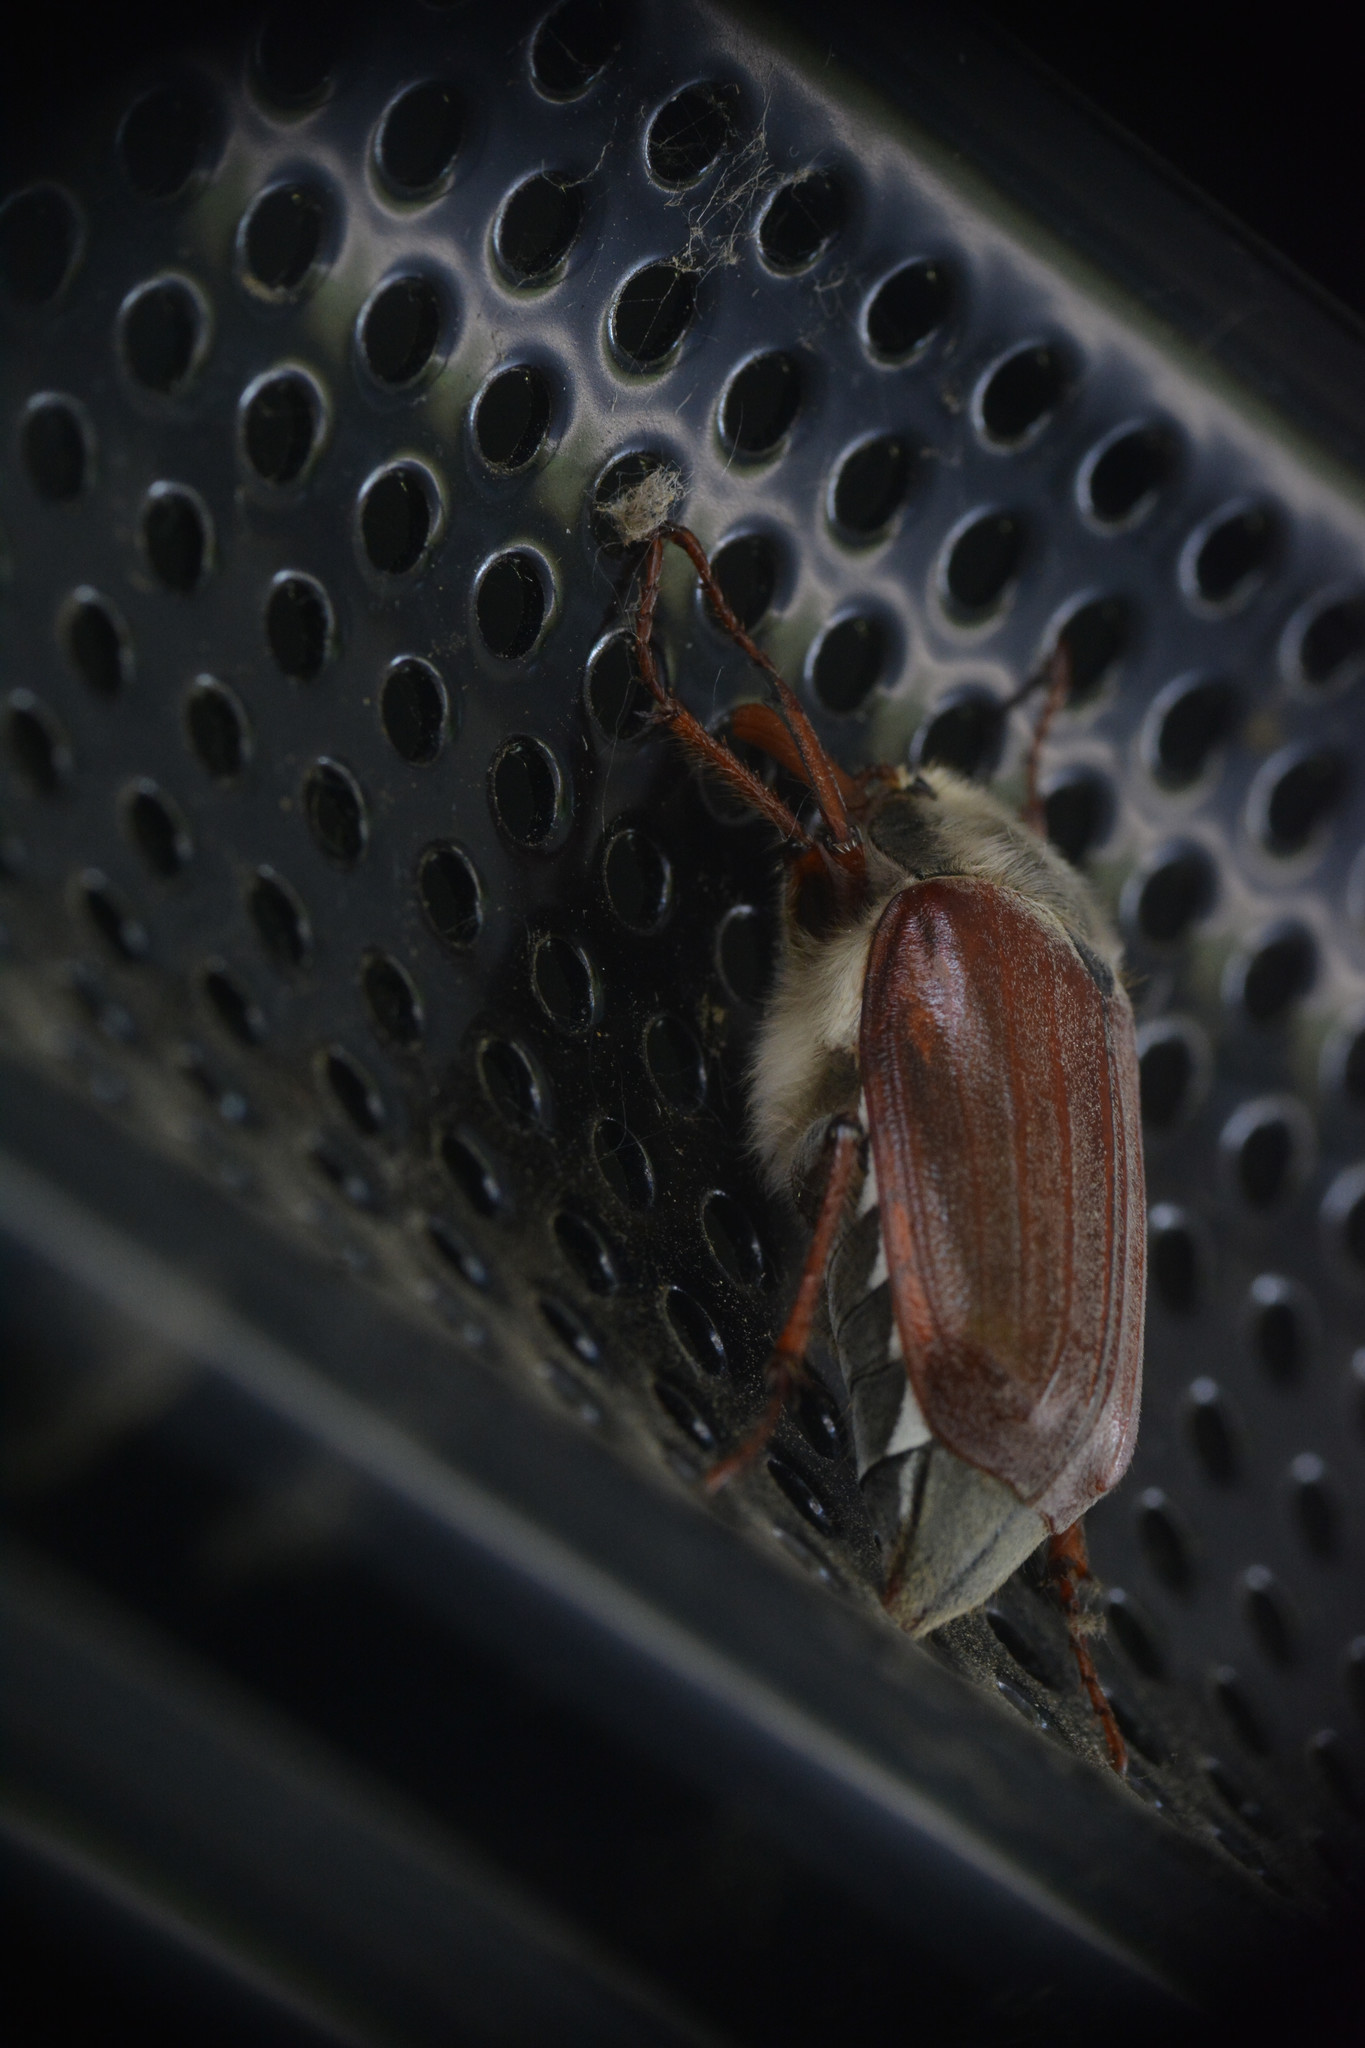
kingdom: Animalia
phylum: Arthropoda
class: Insecta
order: Coleoptera
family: Scarabaeidae
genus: Melolontha
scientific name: Melolontha melolontha
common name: Cockchafer maybeetle
